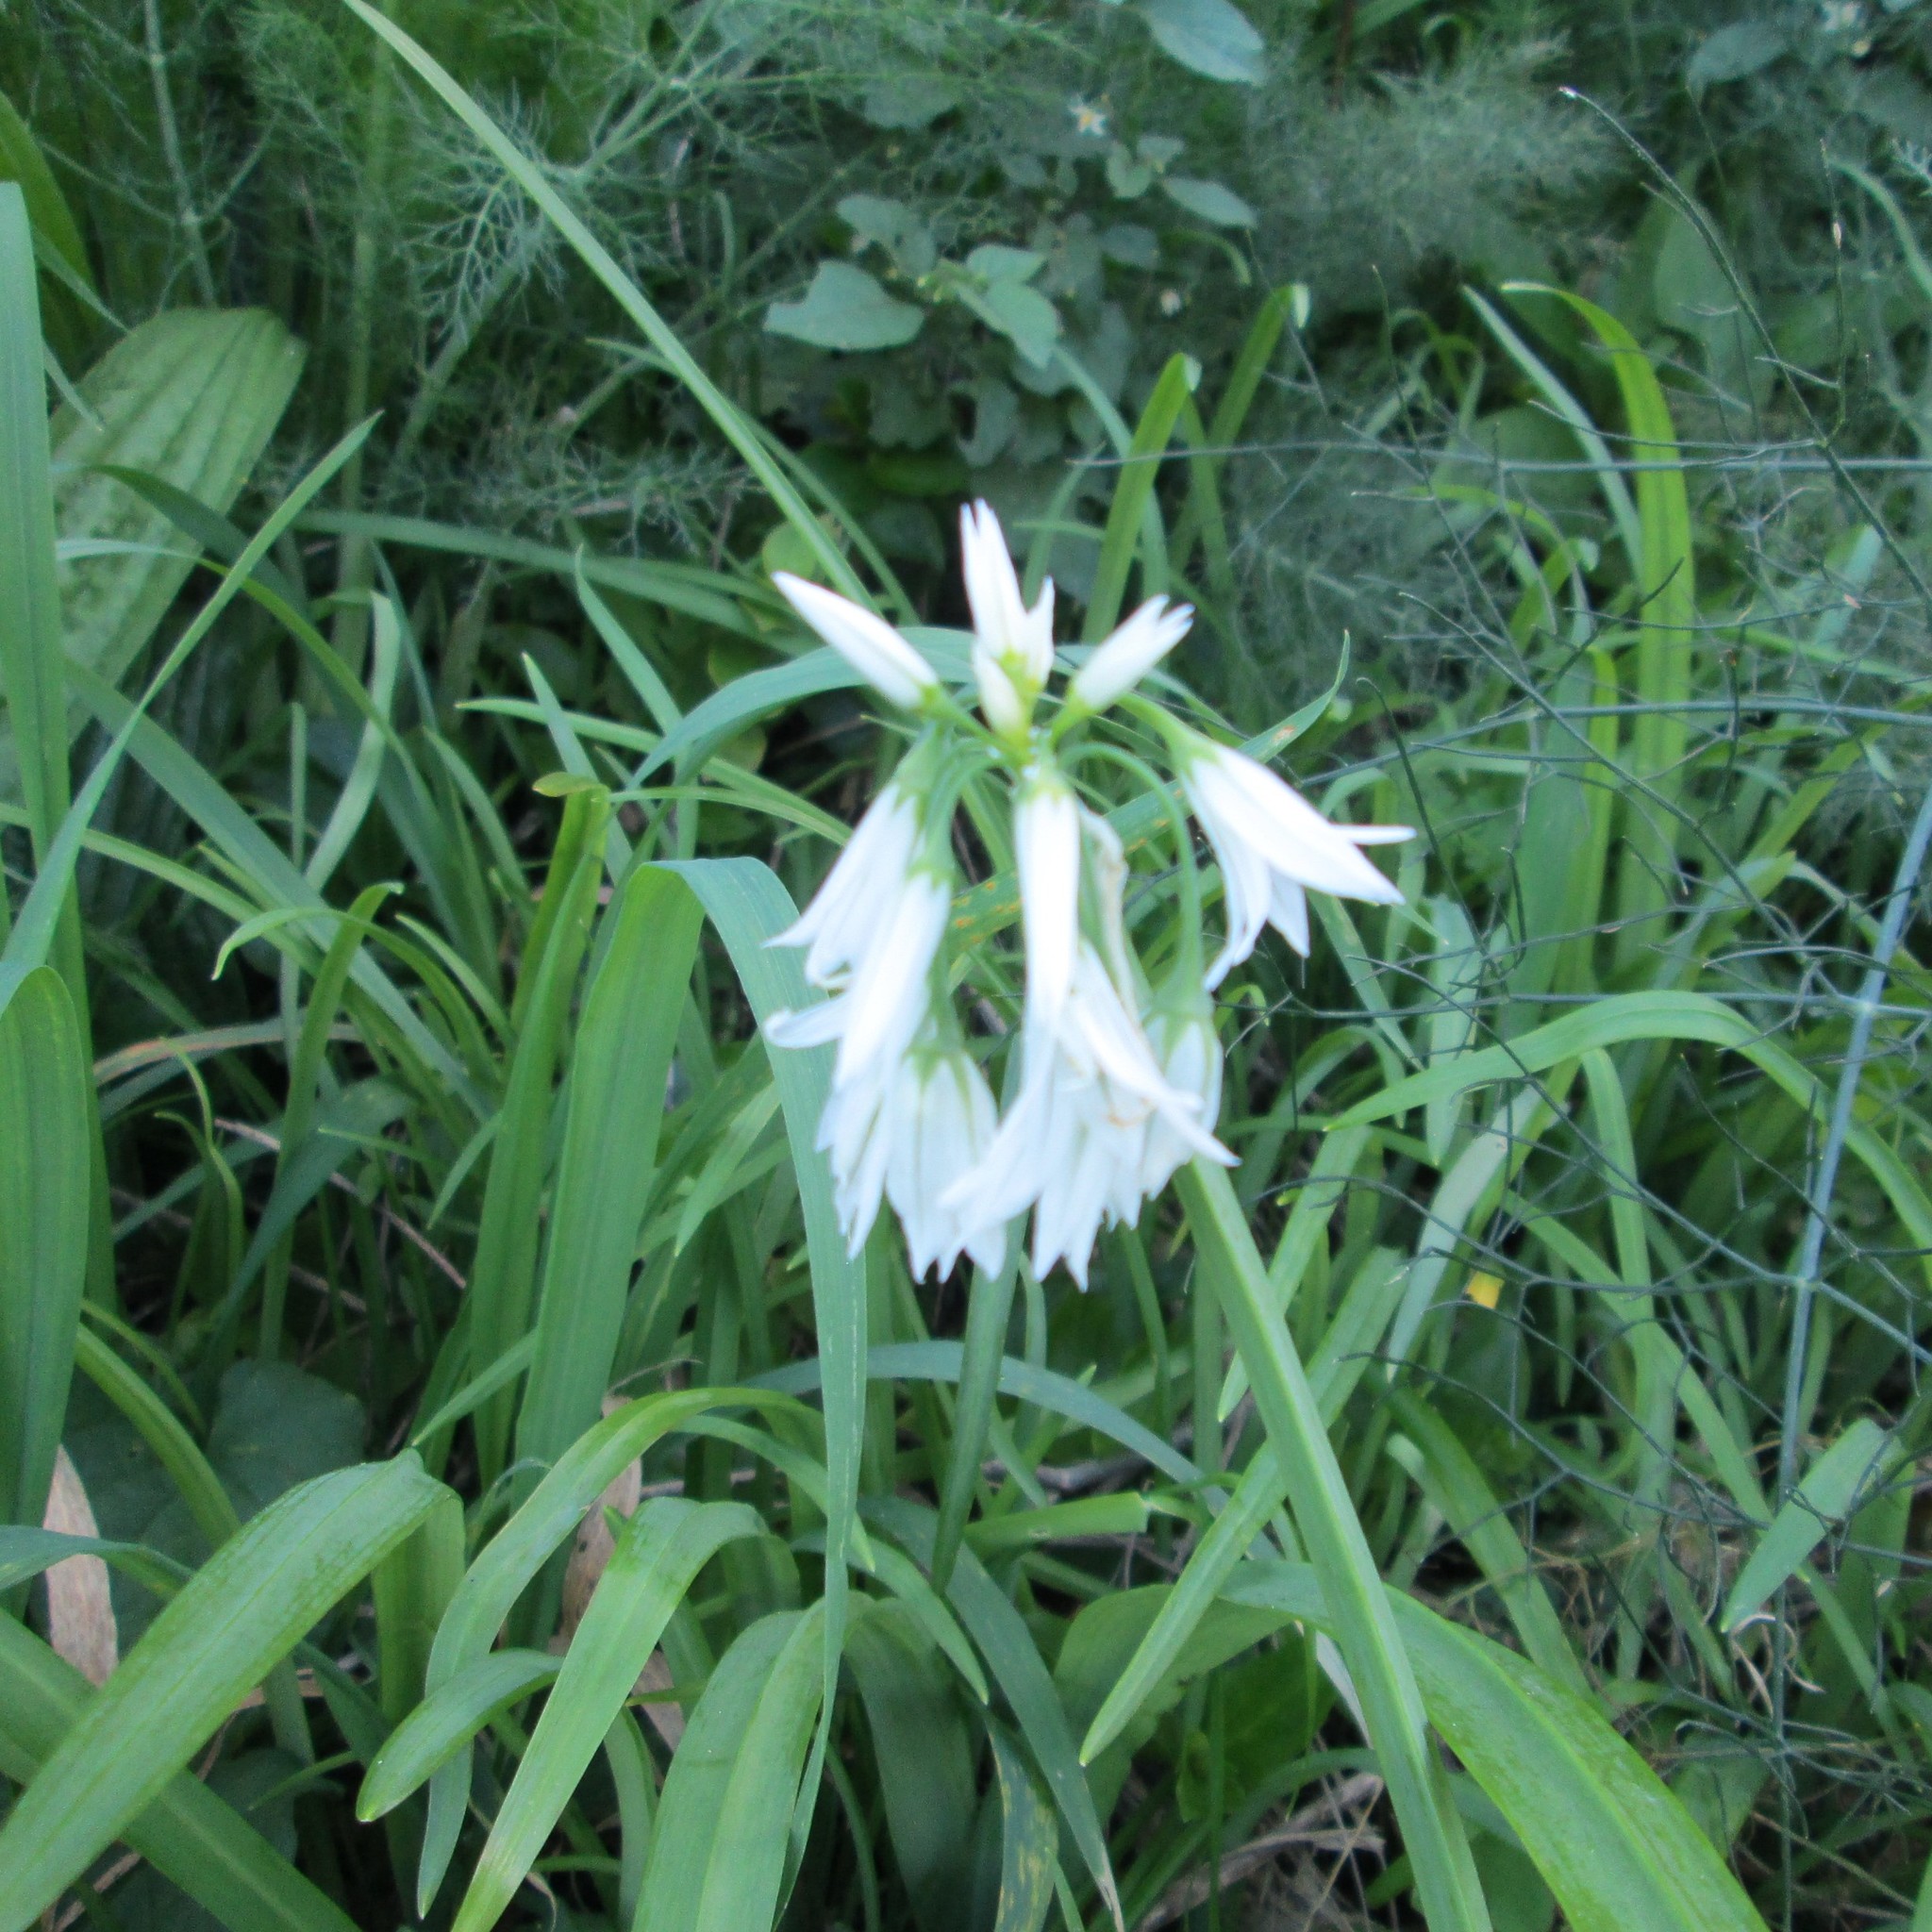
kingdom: Plantae
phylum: Tracheophyta
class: Liliopsida
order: Asparagales
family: Amaryllidaceae
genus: Allium
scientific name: Allium triquetrum
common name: Three-cornered garlic
